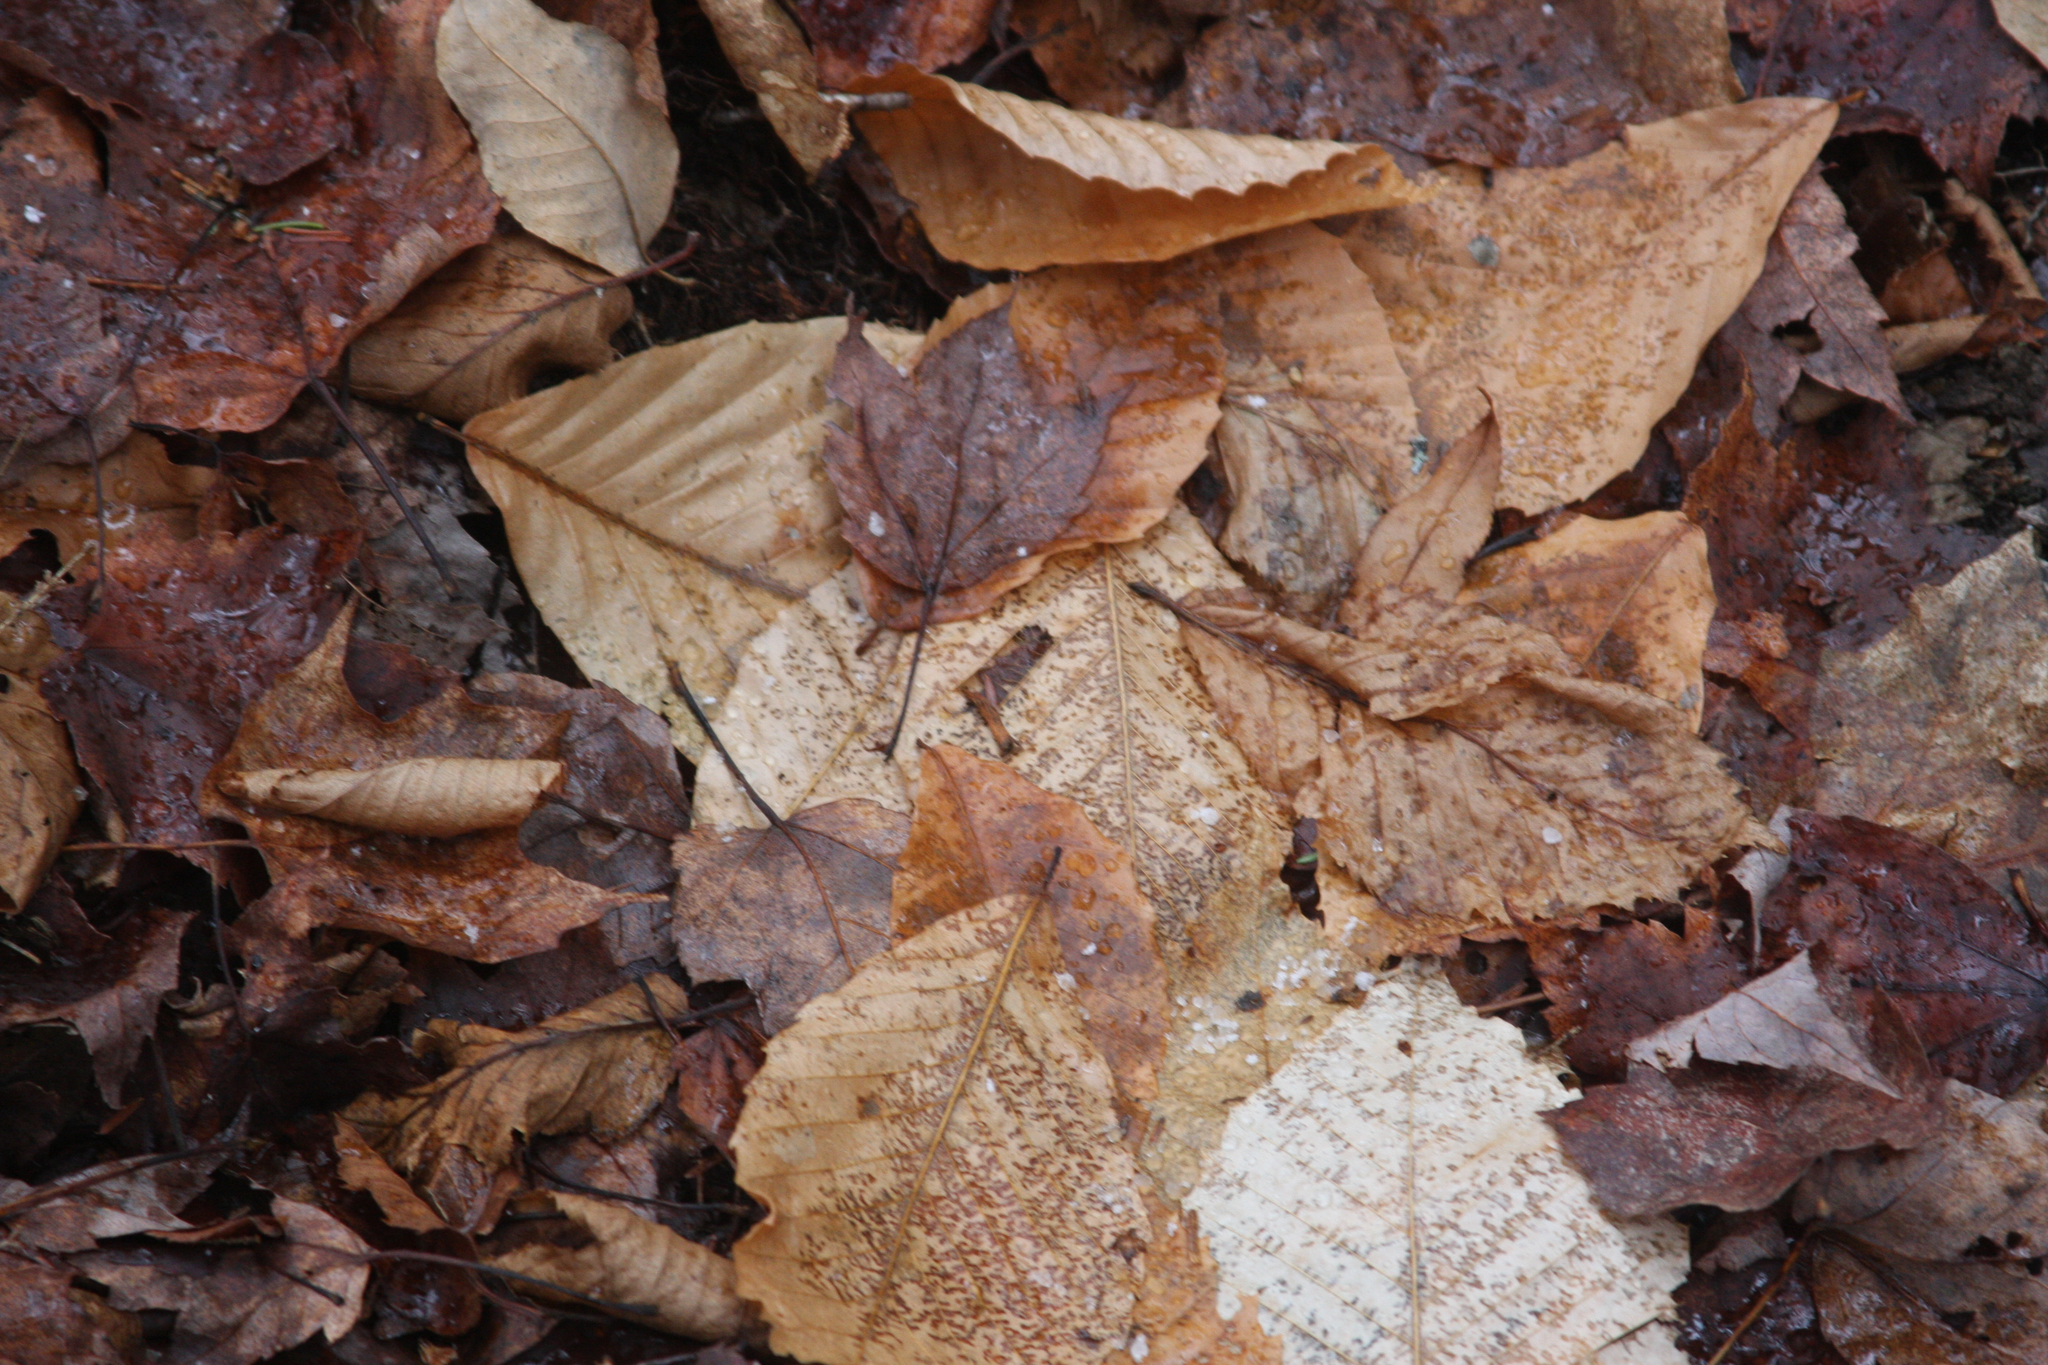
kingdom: Plantae
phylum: Tracheophyta
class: Magnoliopsida
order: Fagales
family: Fagaceae
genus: Fagus
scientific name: Fagus grandifolia
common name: American beech
